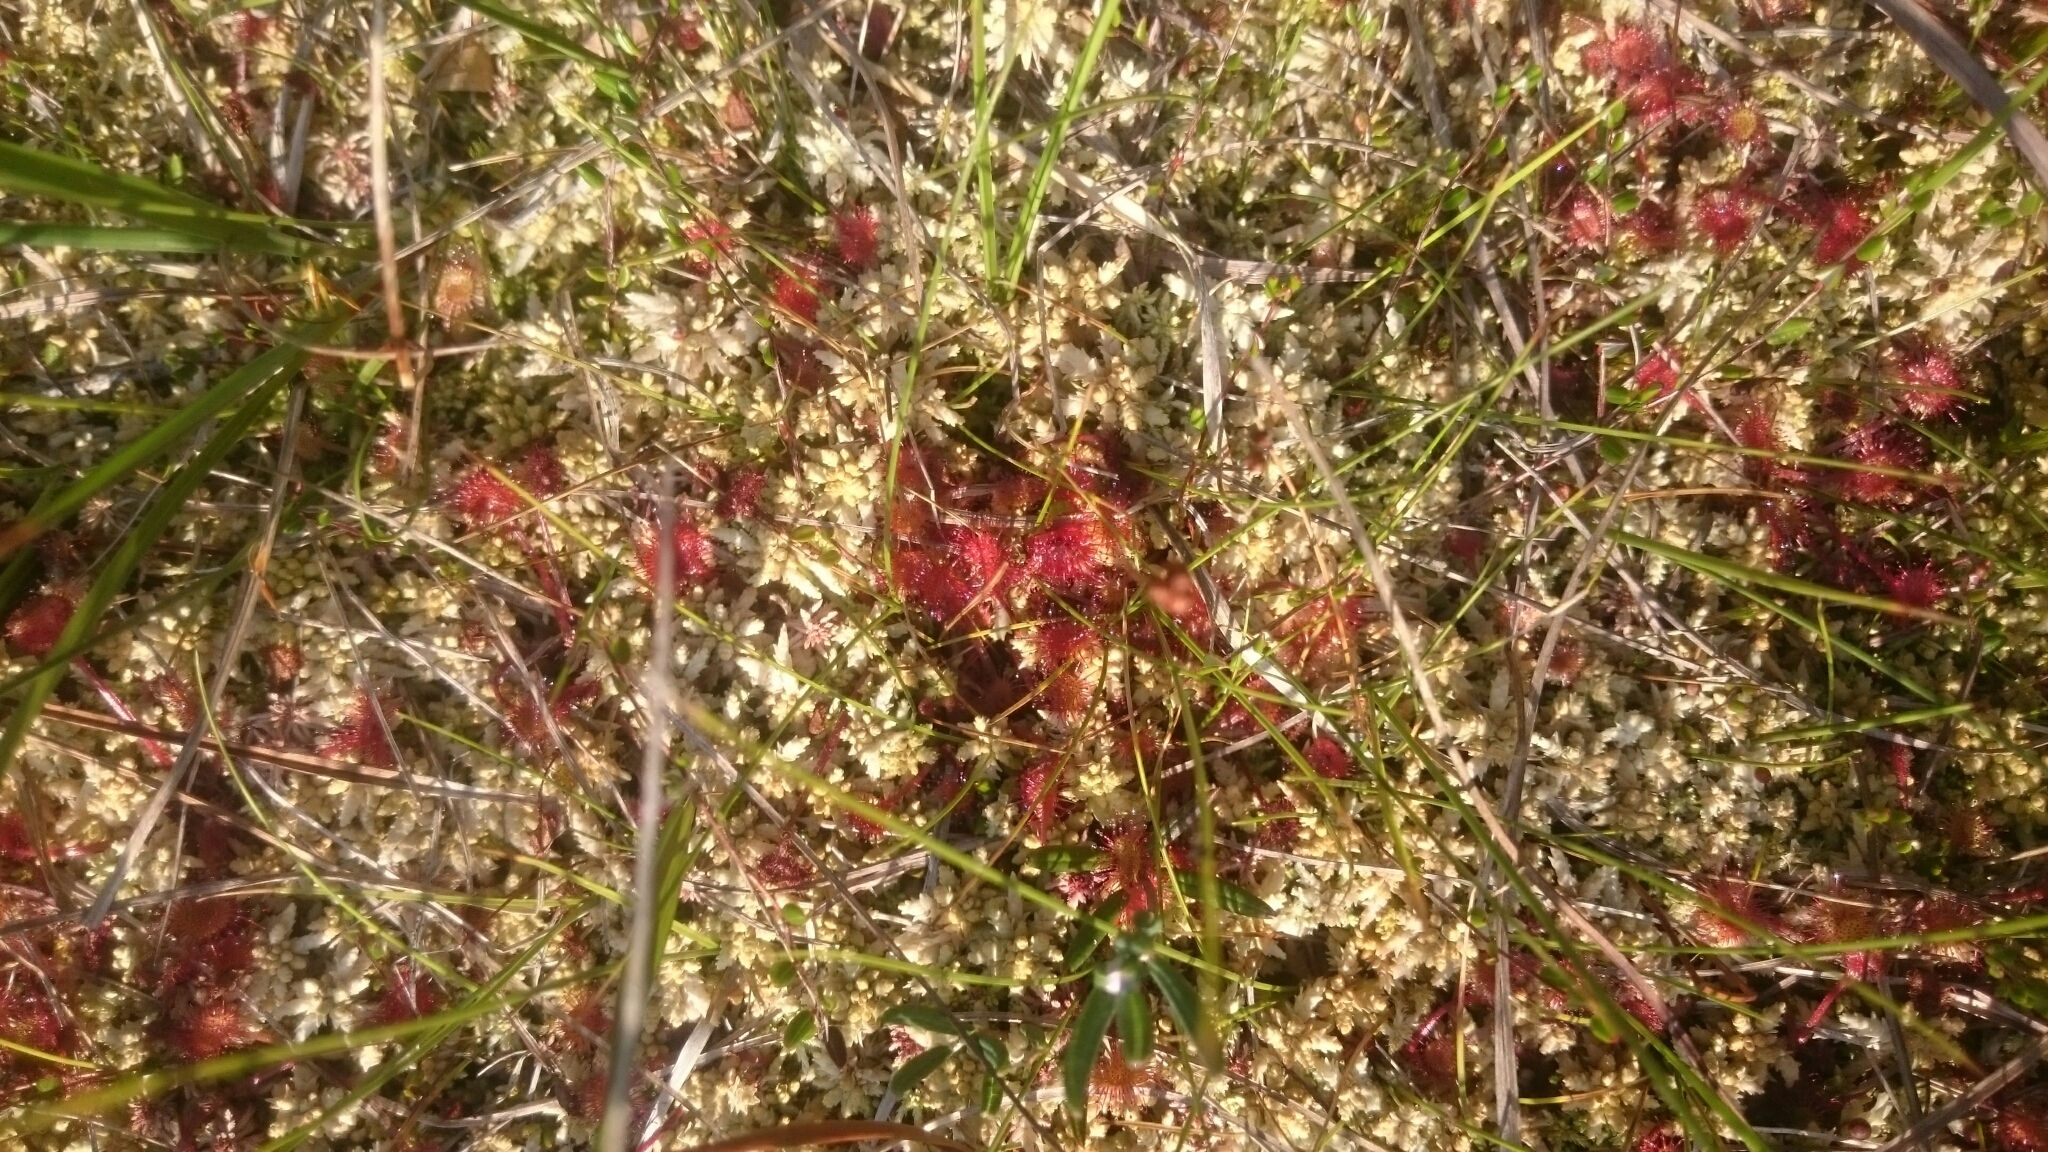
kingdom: Plantae
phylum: Tracheophyta
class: Magnoliopsida
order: Caryophyllales
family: Droseraceae
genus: Drosera
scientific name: Drosera rotundifolia
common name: Round-leaved sundew
